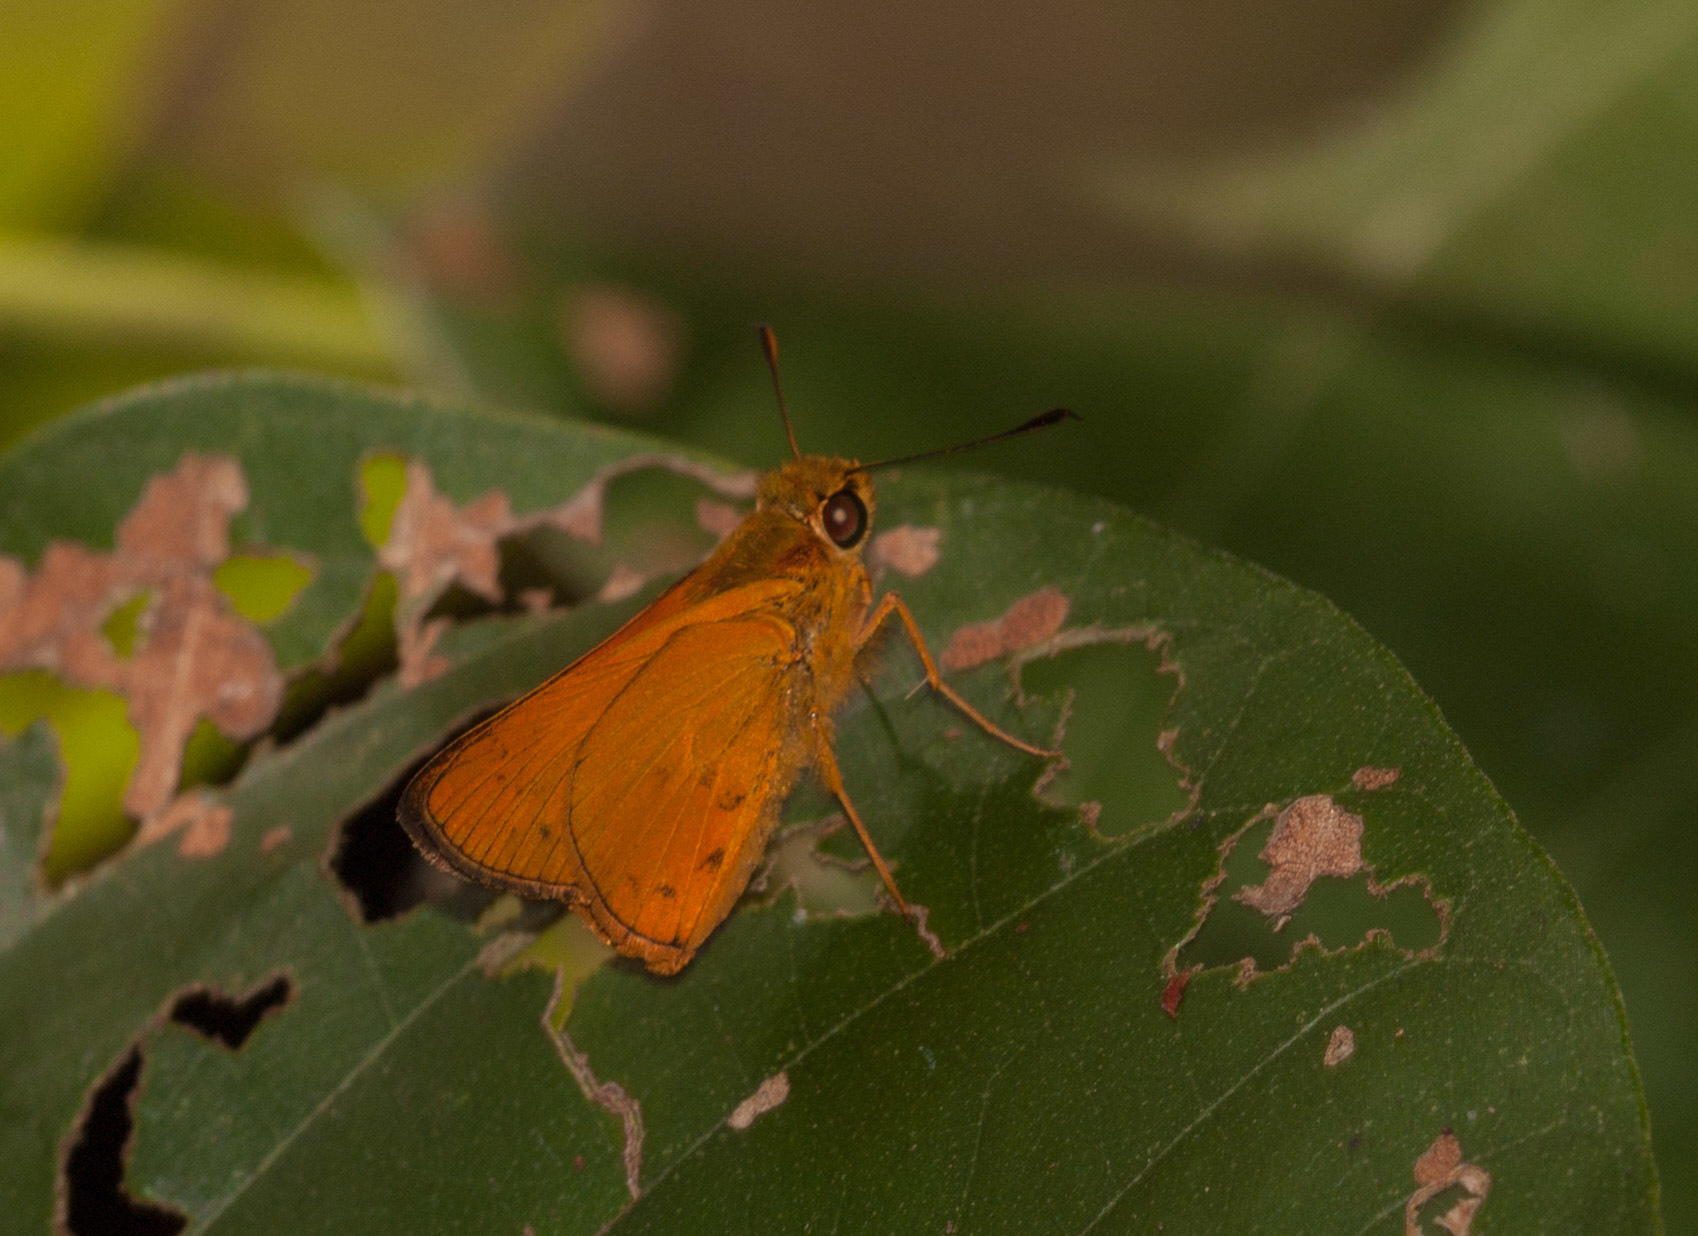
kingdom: Animalia
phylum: Arthropoda
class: Insecta
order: Lepidoptera
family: Hesperiidae
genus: Telicota
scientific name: Telicota augias
